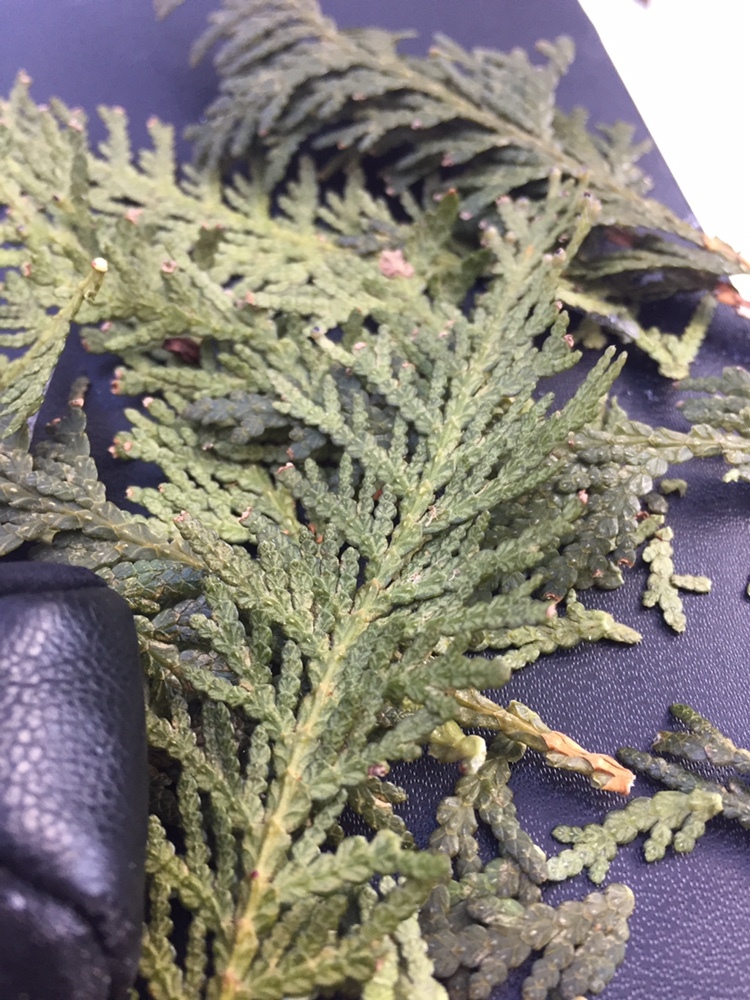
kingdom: Plantae
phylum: Tracheophyta
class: Pinopsida
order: Pinales
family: Cupressaceae
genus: Thuja
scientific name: Thuja occidentalis
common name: Northern white-cedar
